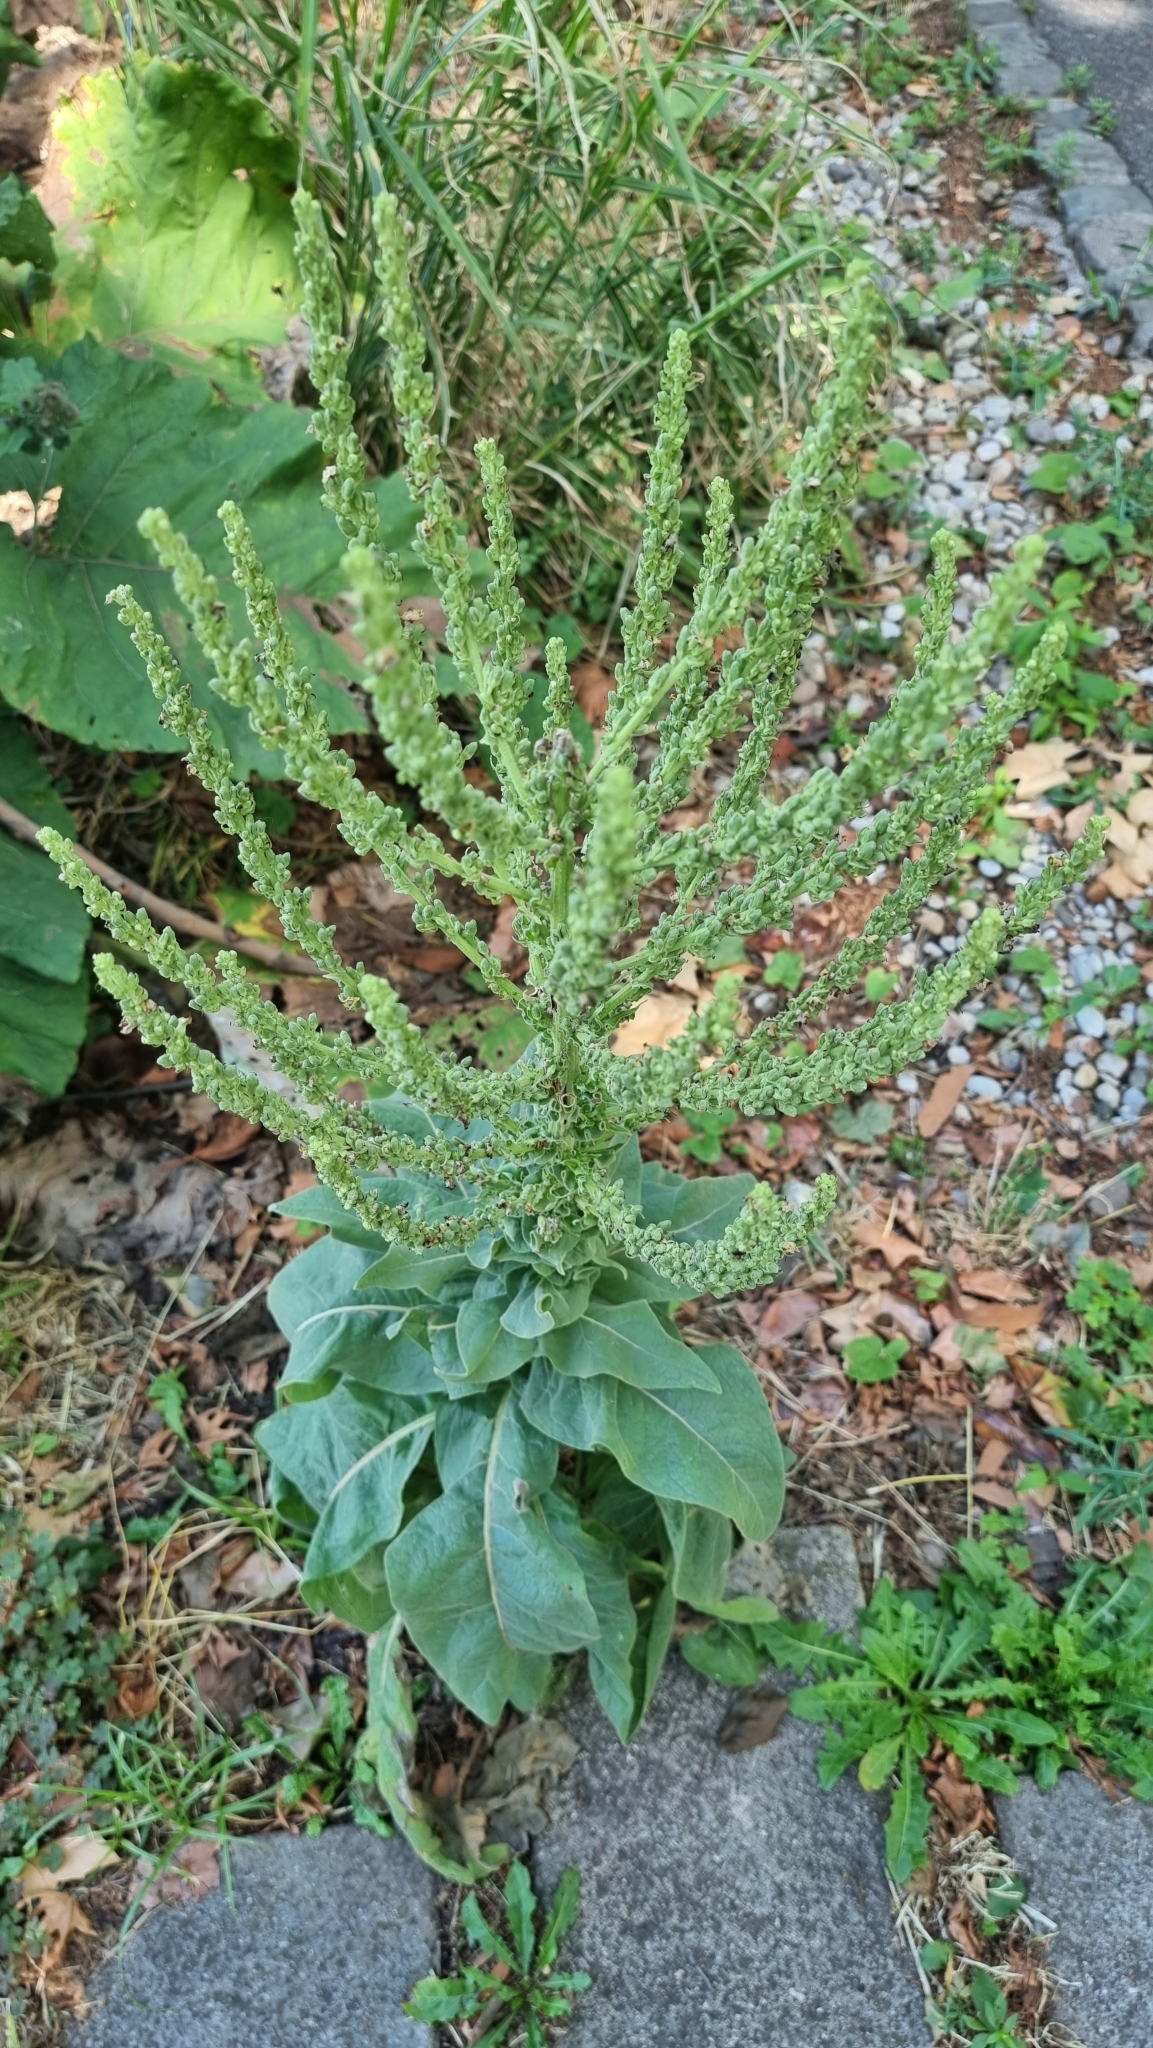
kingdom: Plantae
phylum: Tracheophyta
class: Magnoliopsida
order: Lamiales
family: Scrophulariaceae
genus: Verbascum
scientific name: Verbascum speciosum
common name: Hungarian mullein
